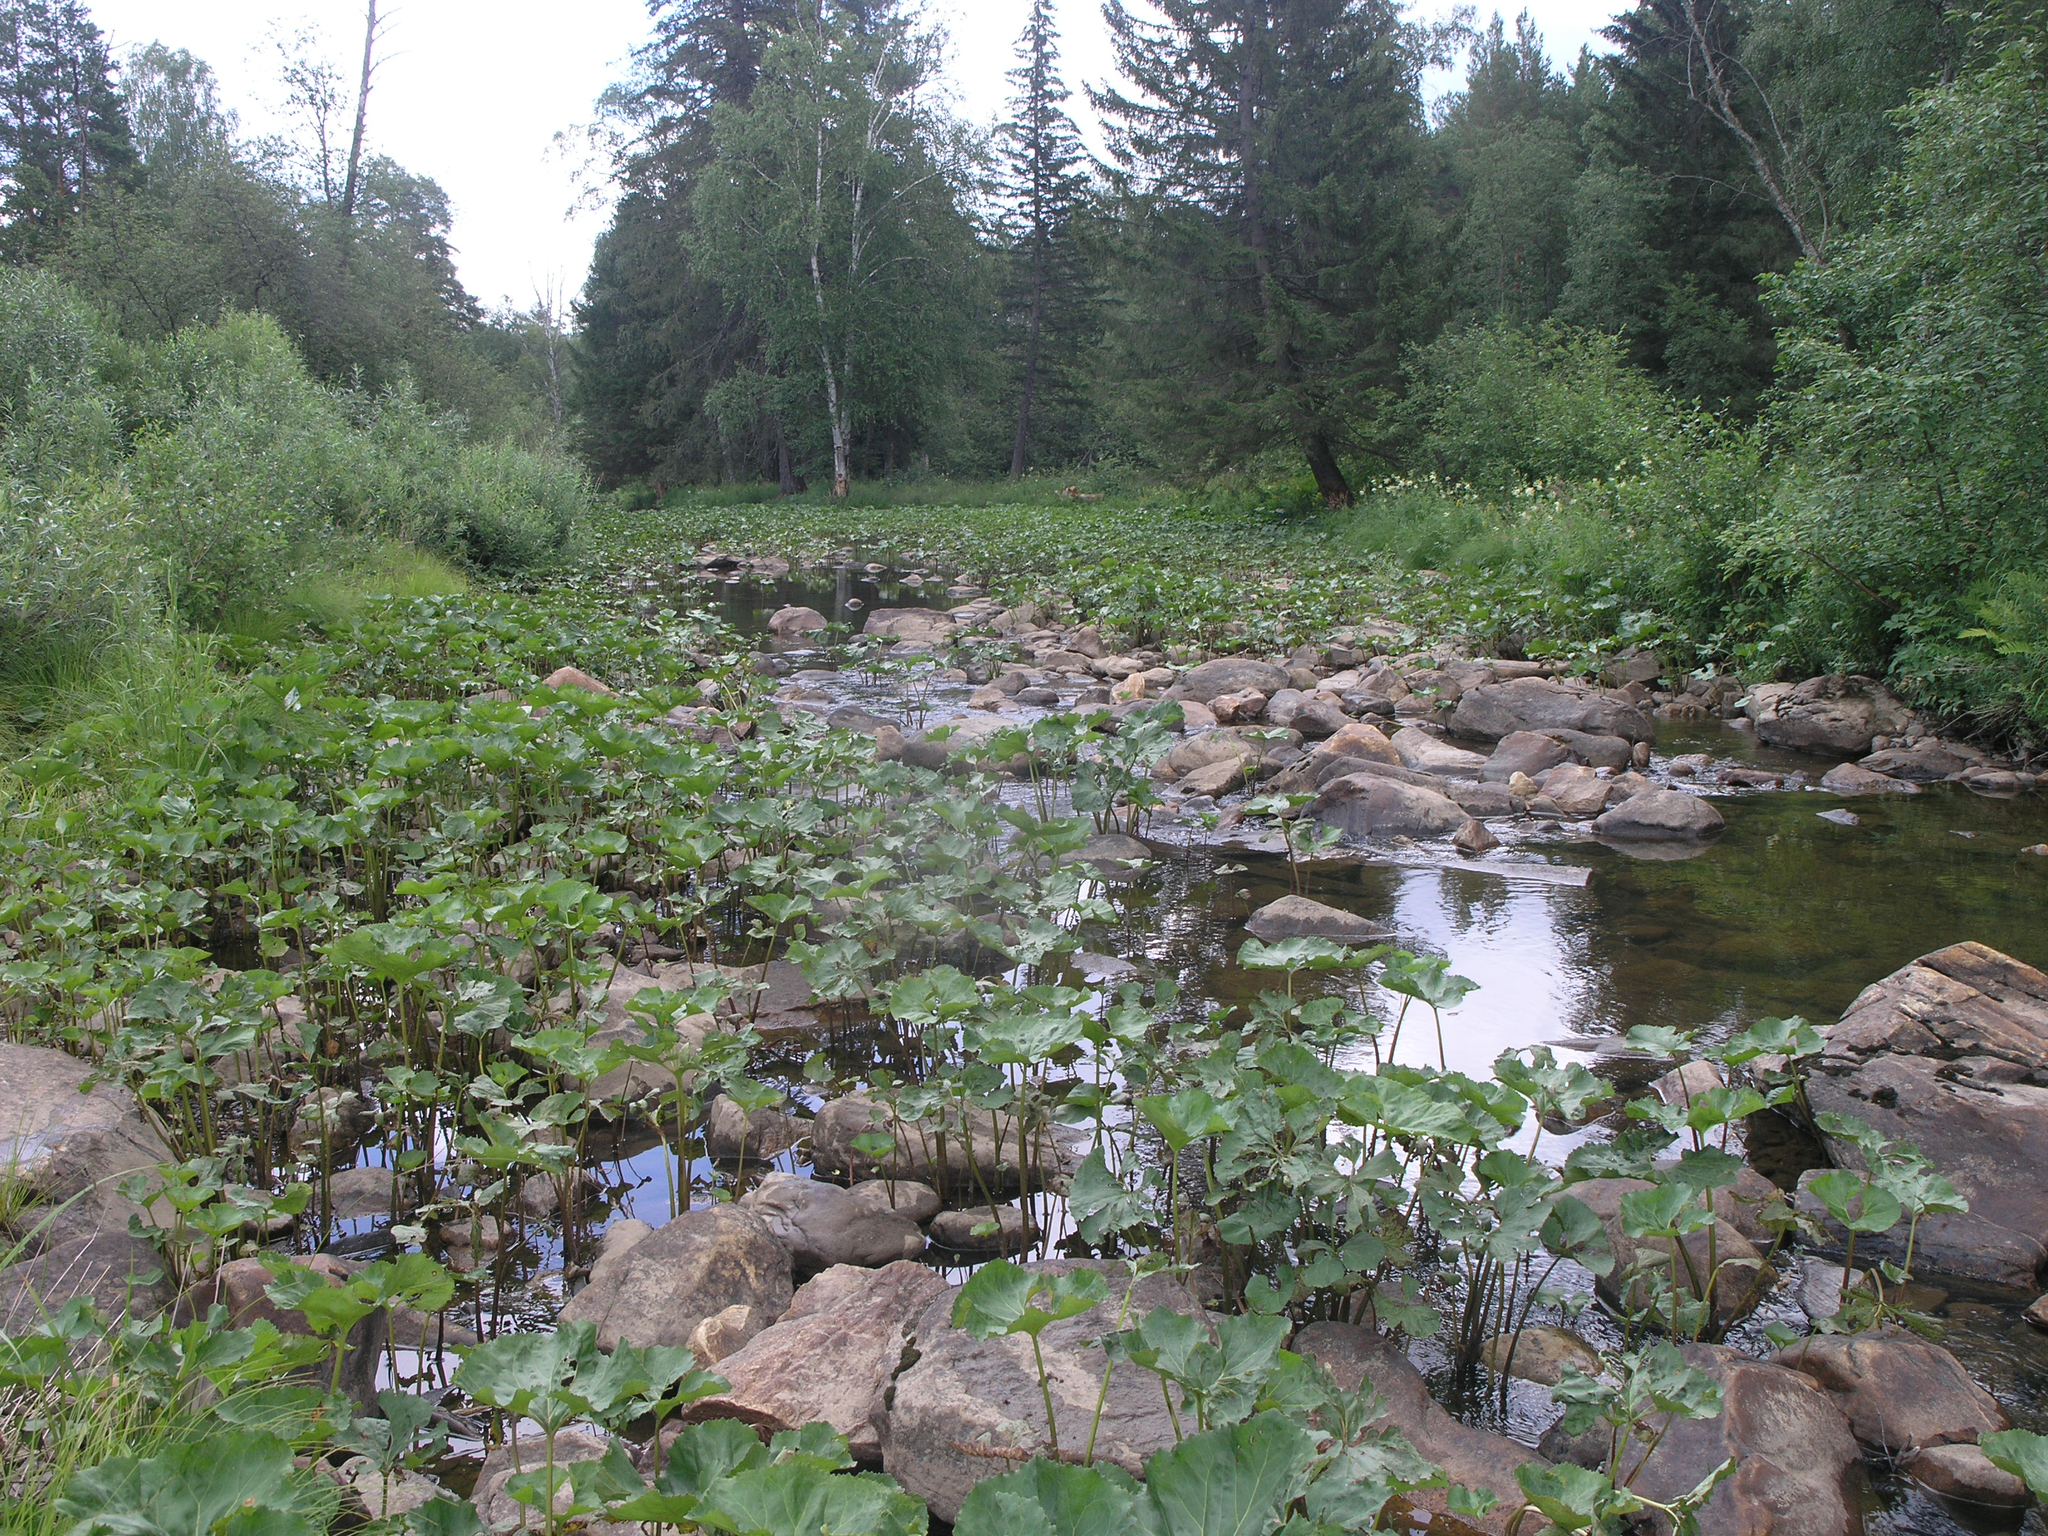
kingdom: Plantae
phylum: Tracheophyta
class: Magnoliopsida
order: Asterales
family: Asteraceae
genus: Petasites
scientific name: Petasites radiatus
